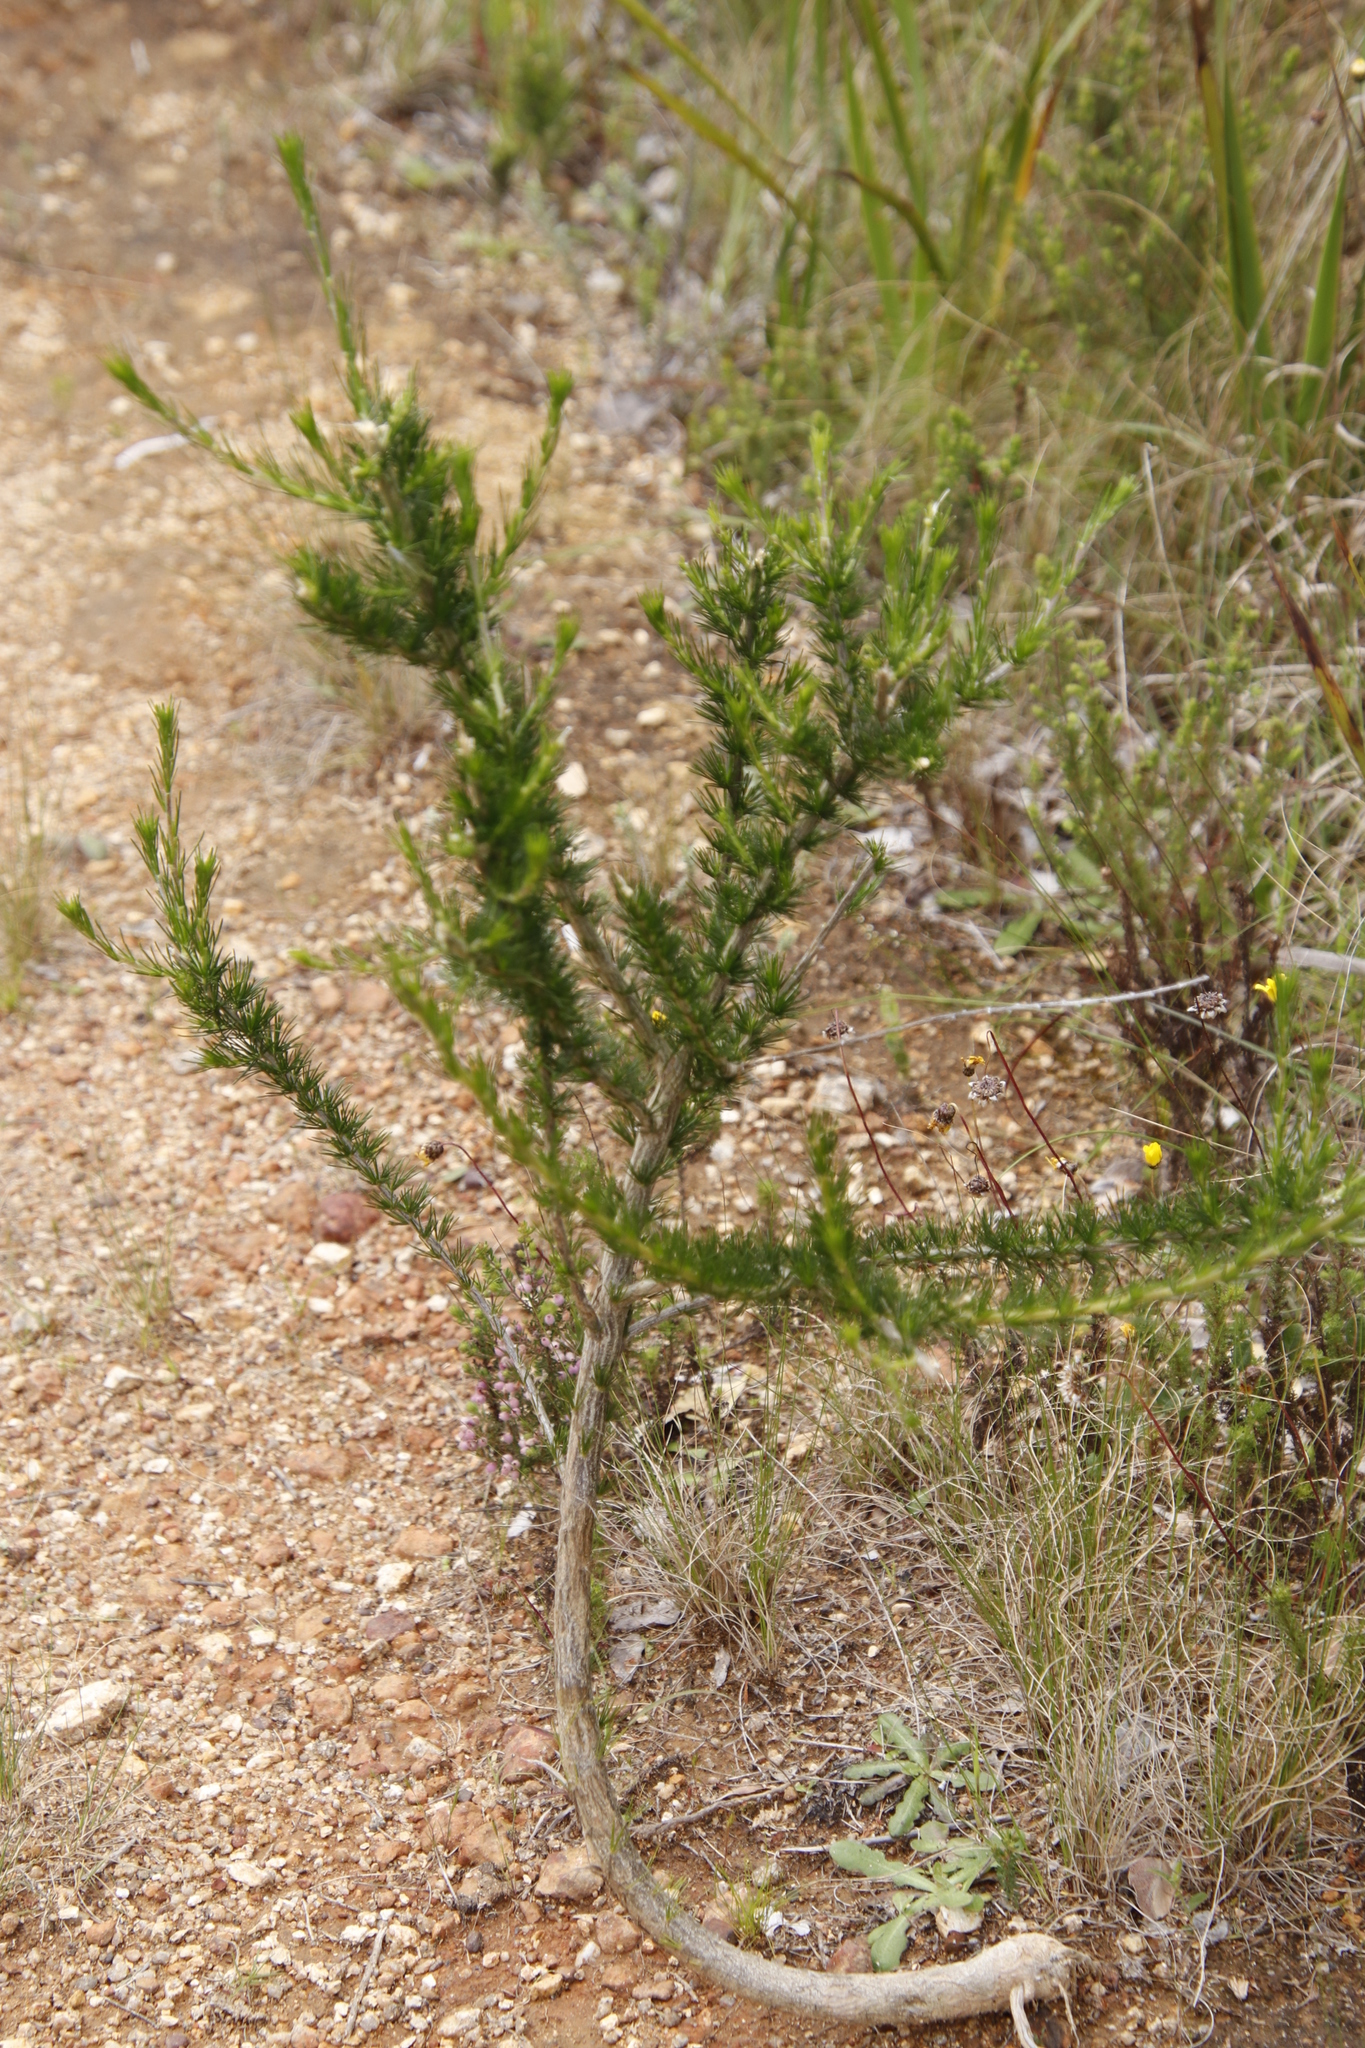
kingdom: Plantae
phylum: Tracheophyta
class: Magnoliopsida
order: Fabales
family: Fabaceae
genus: Psoralea
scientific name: Psoralea pinnata
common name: African scurfpea
